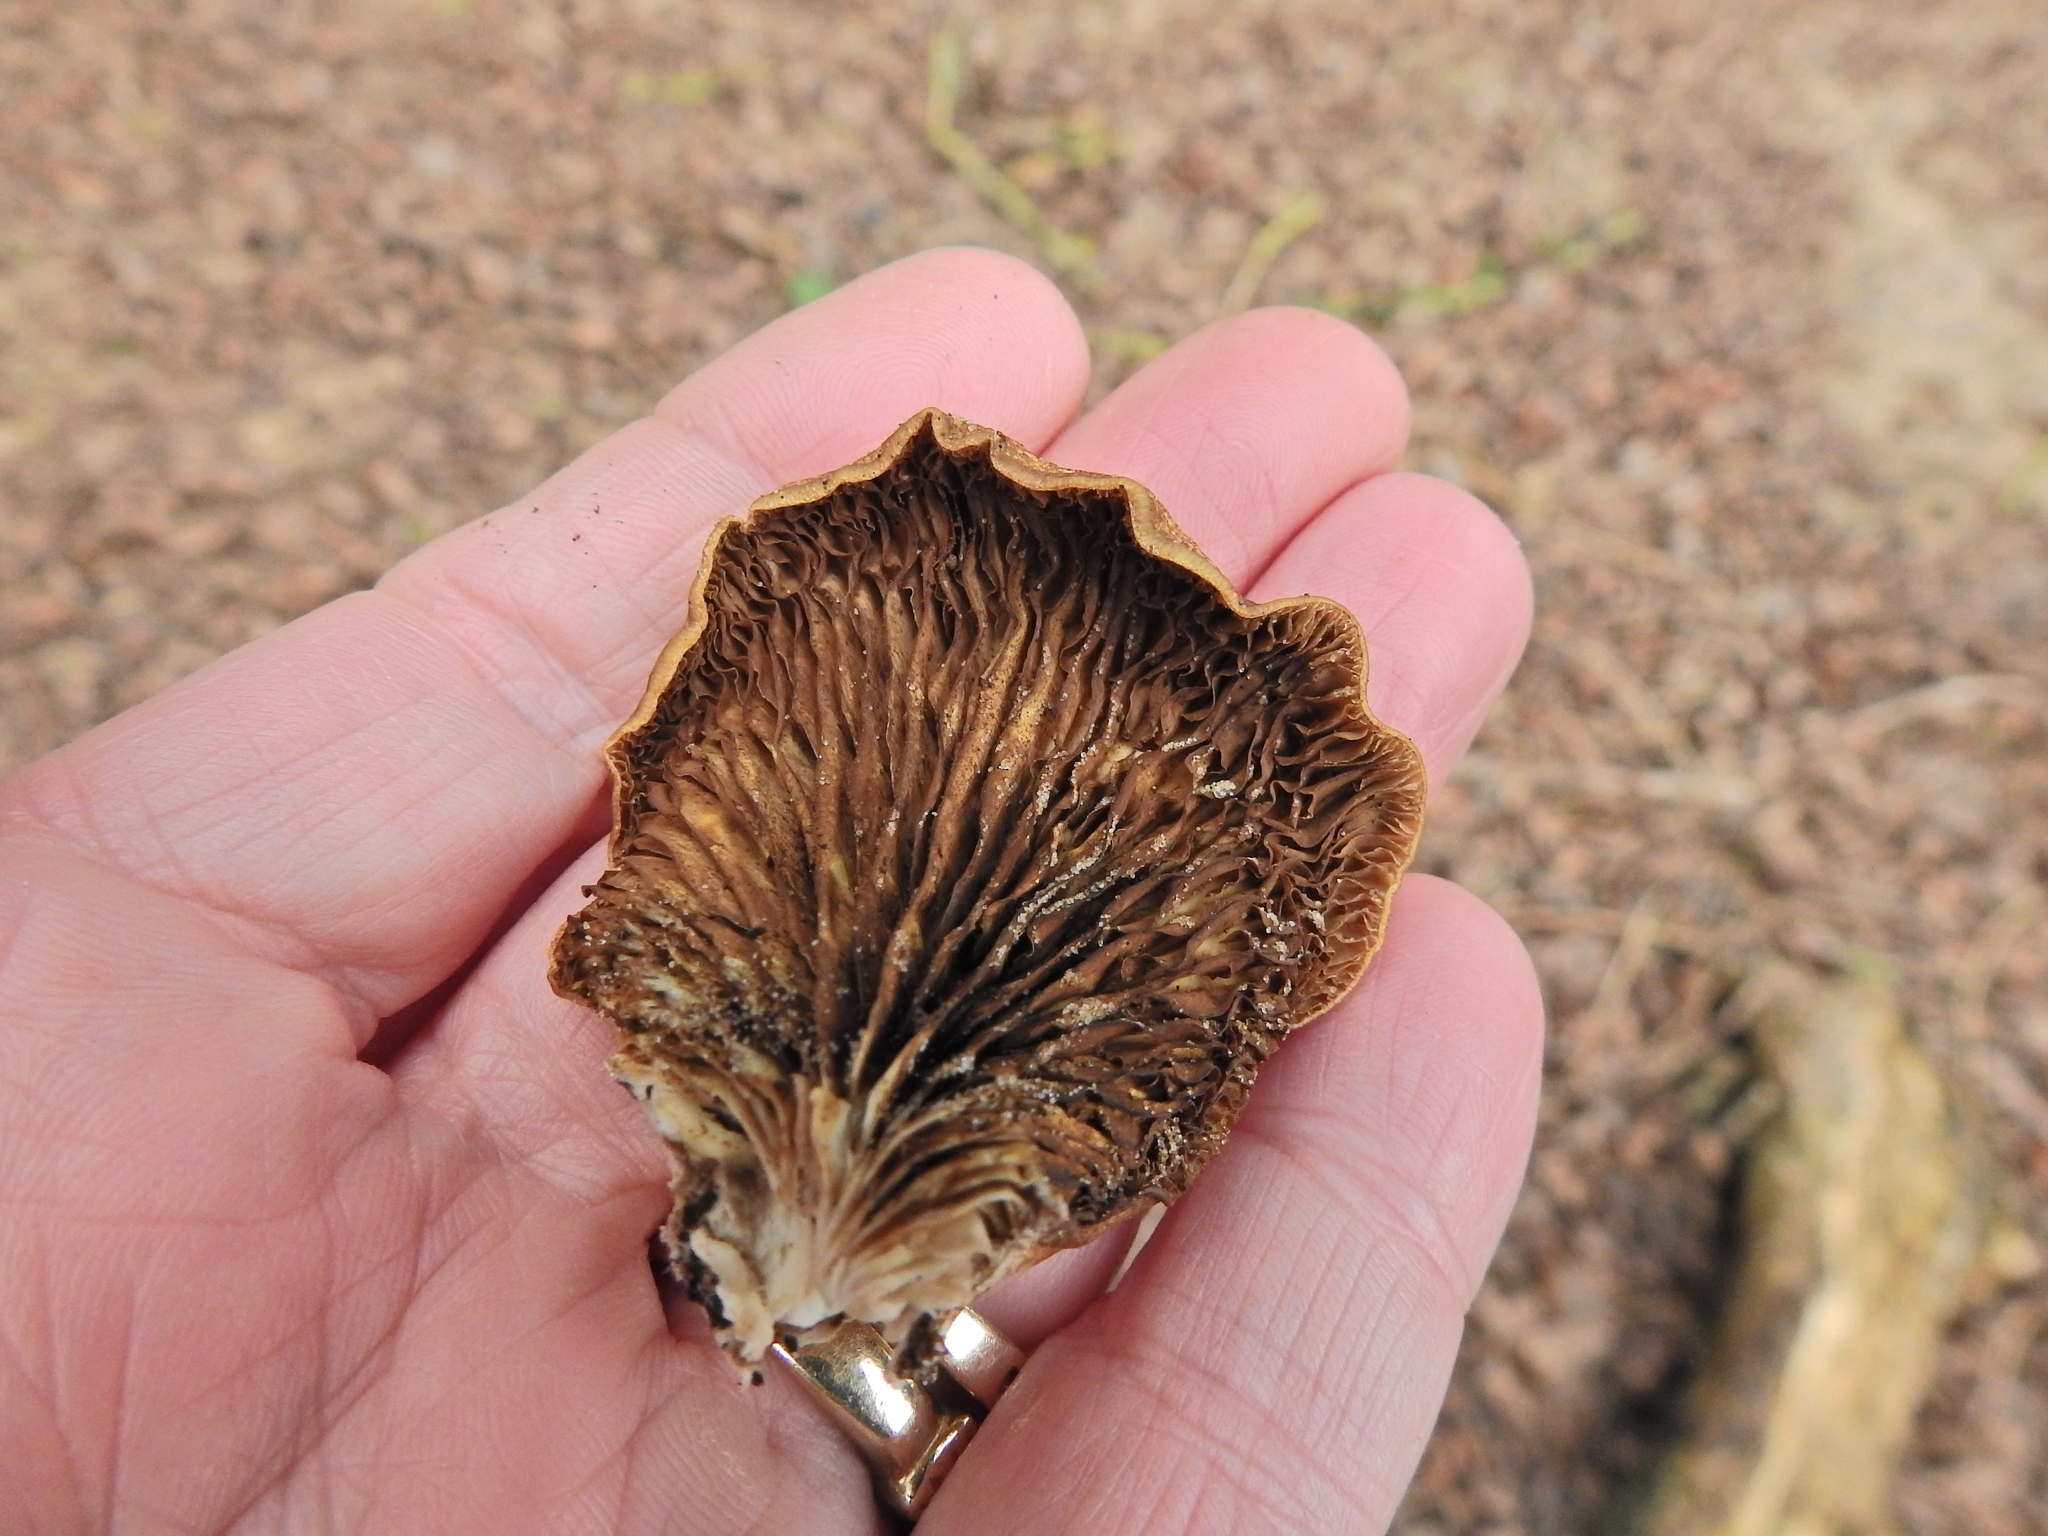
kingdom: Fungi
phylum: Basidiomycota
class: Agaricomycetes
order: Agaricales
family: Crepidotaceae
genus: Crepidotus
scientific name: Crepidotus calolepis
